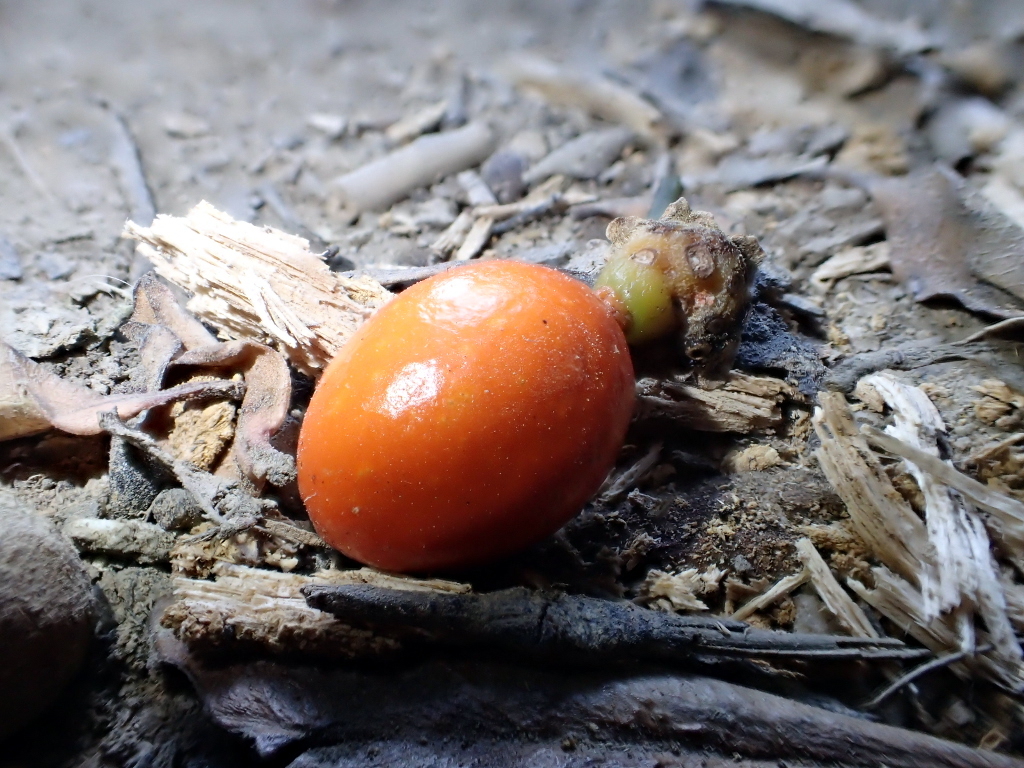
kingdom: Plantae
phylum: Tracheophyta
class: Magnoliopsida
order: Laurales
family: Monimiaceae
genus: Hedycarya
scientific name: Hedycarya arborea
